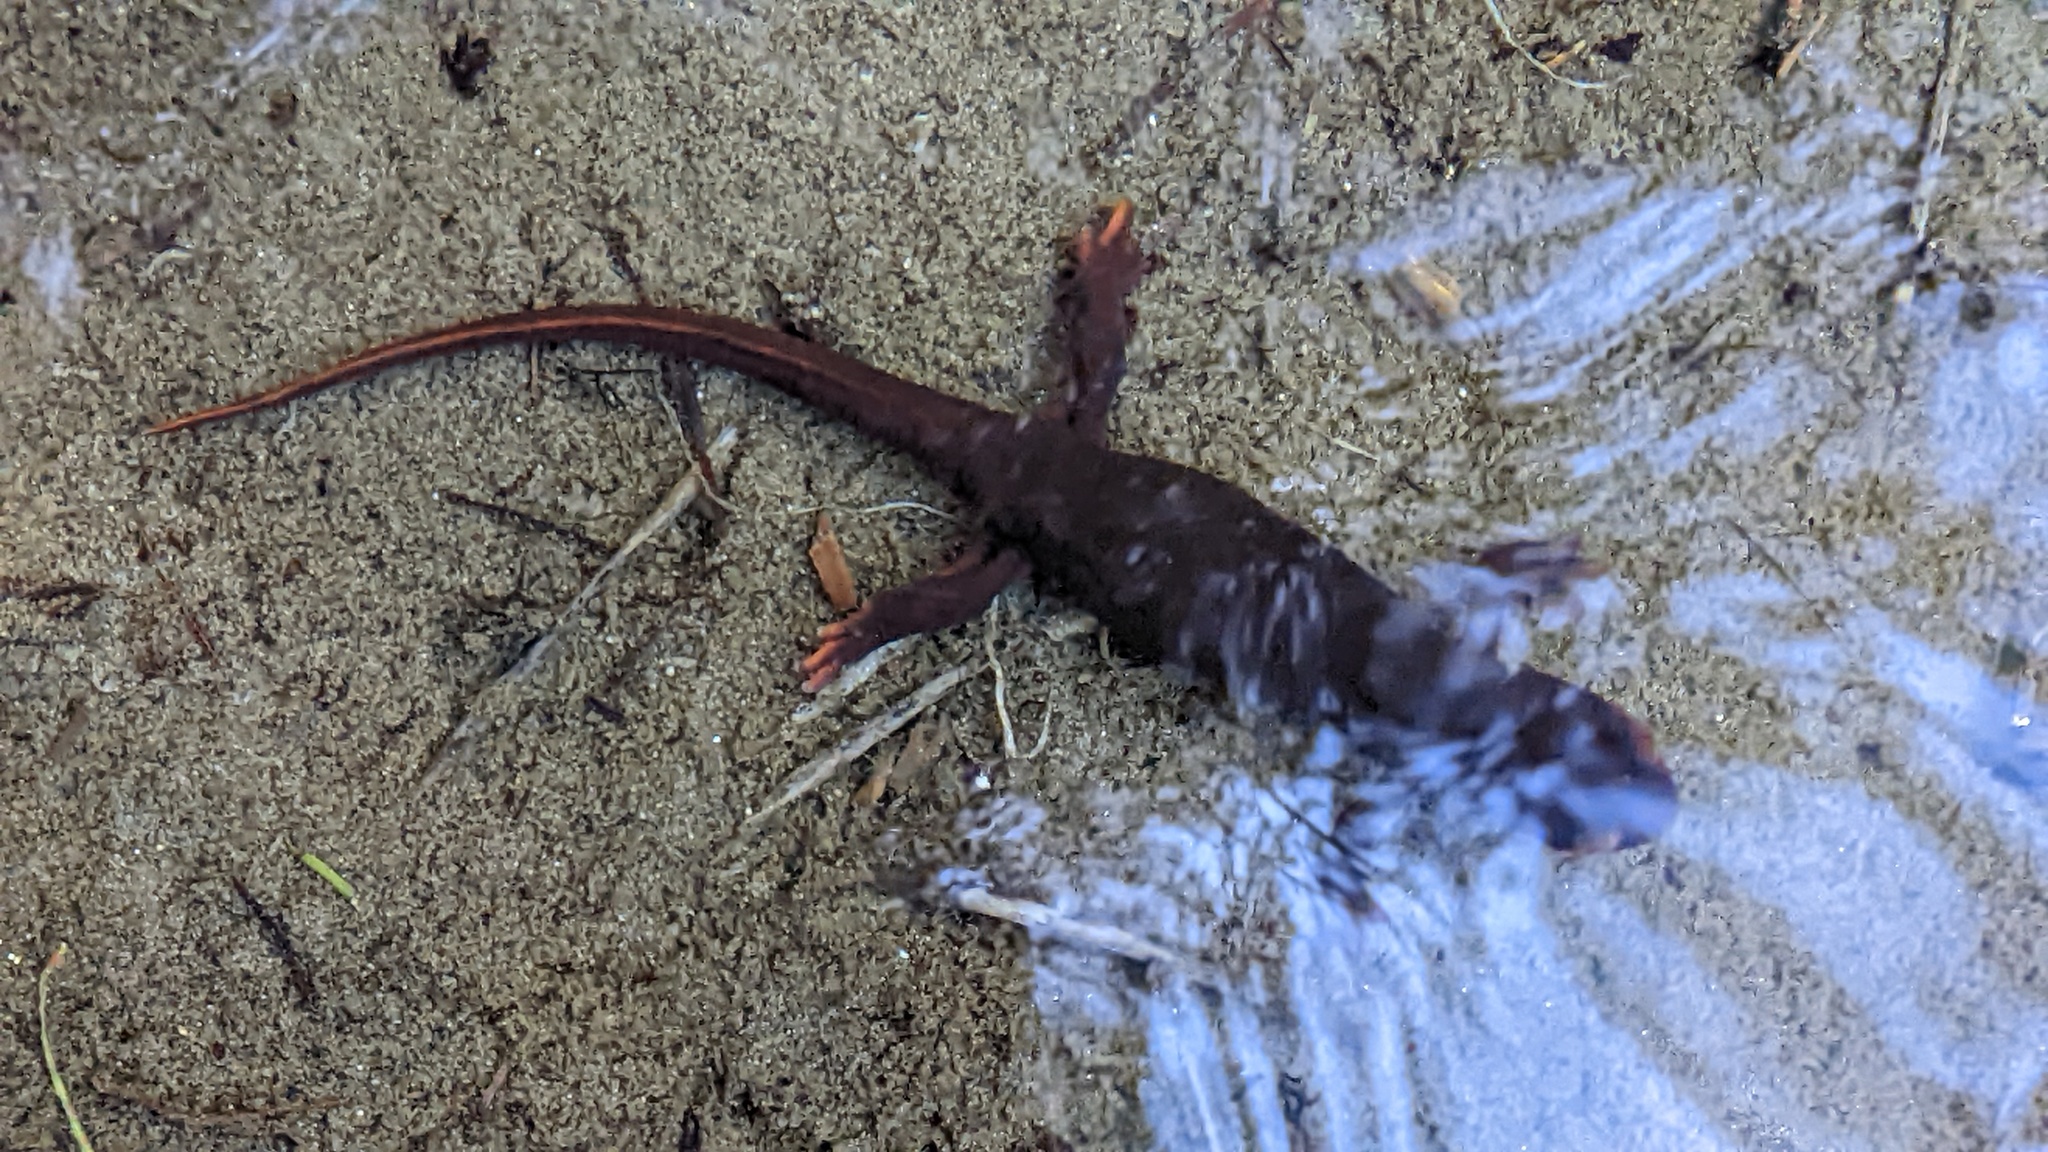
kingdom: Animalia
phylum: Chordata
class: Amphibia
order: Caudata
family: Salamandridae
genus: Taricha
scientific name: Taricha sierrae
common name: Sierra newt
